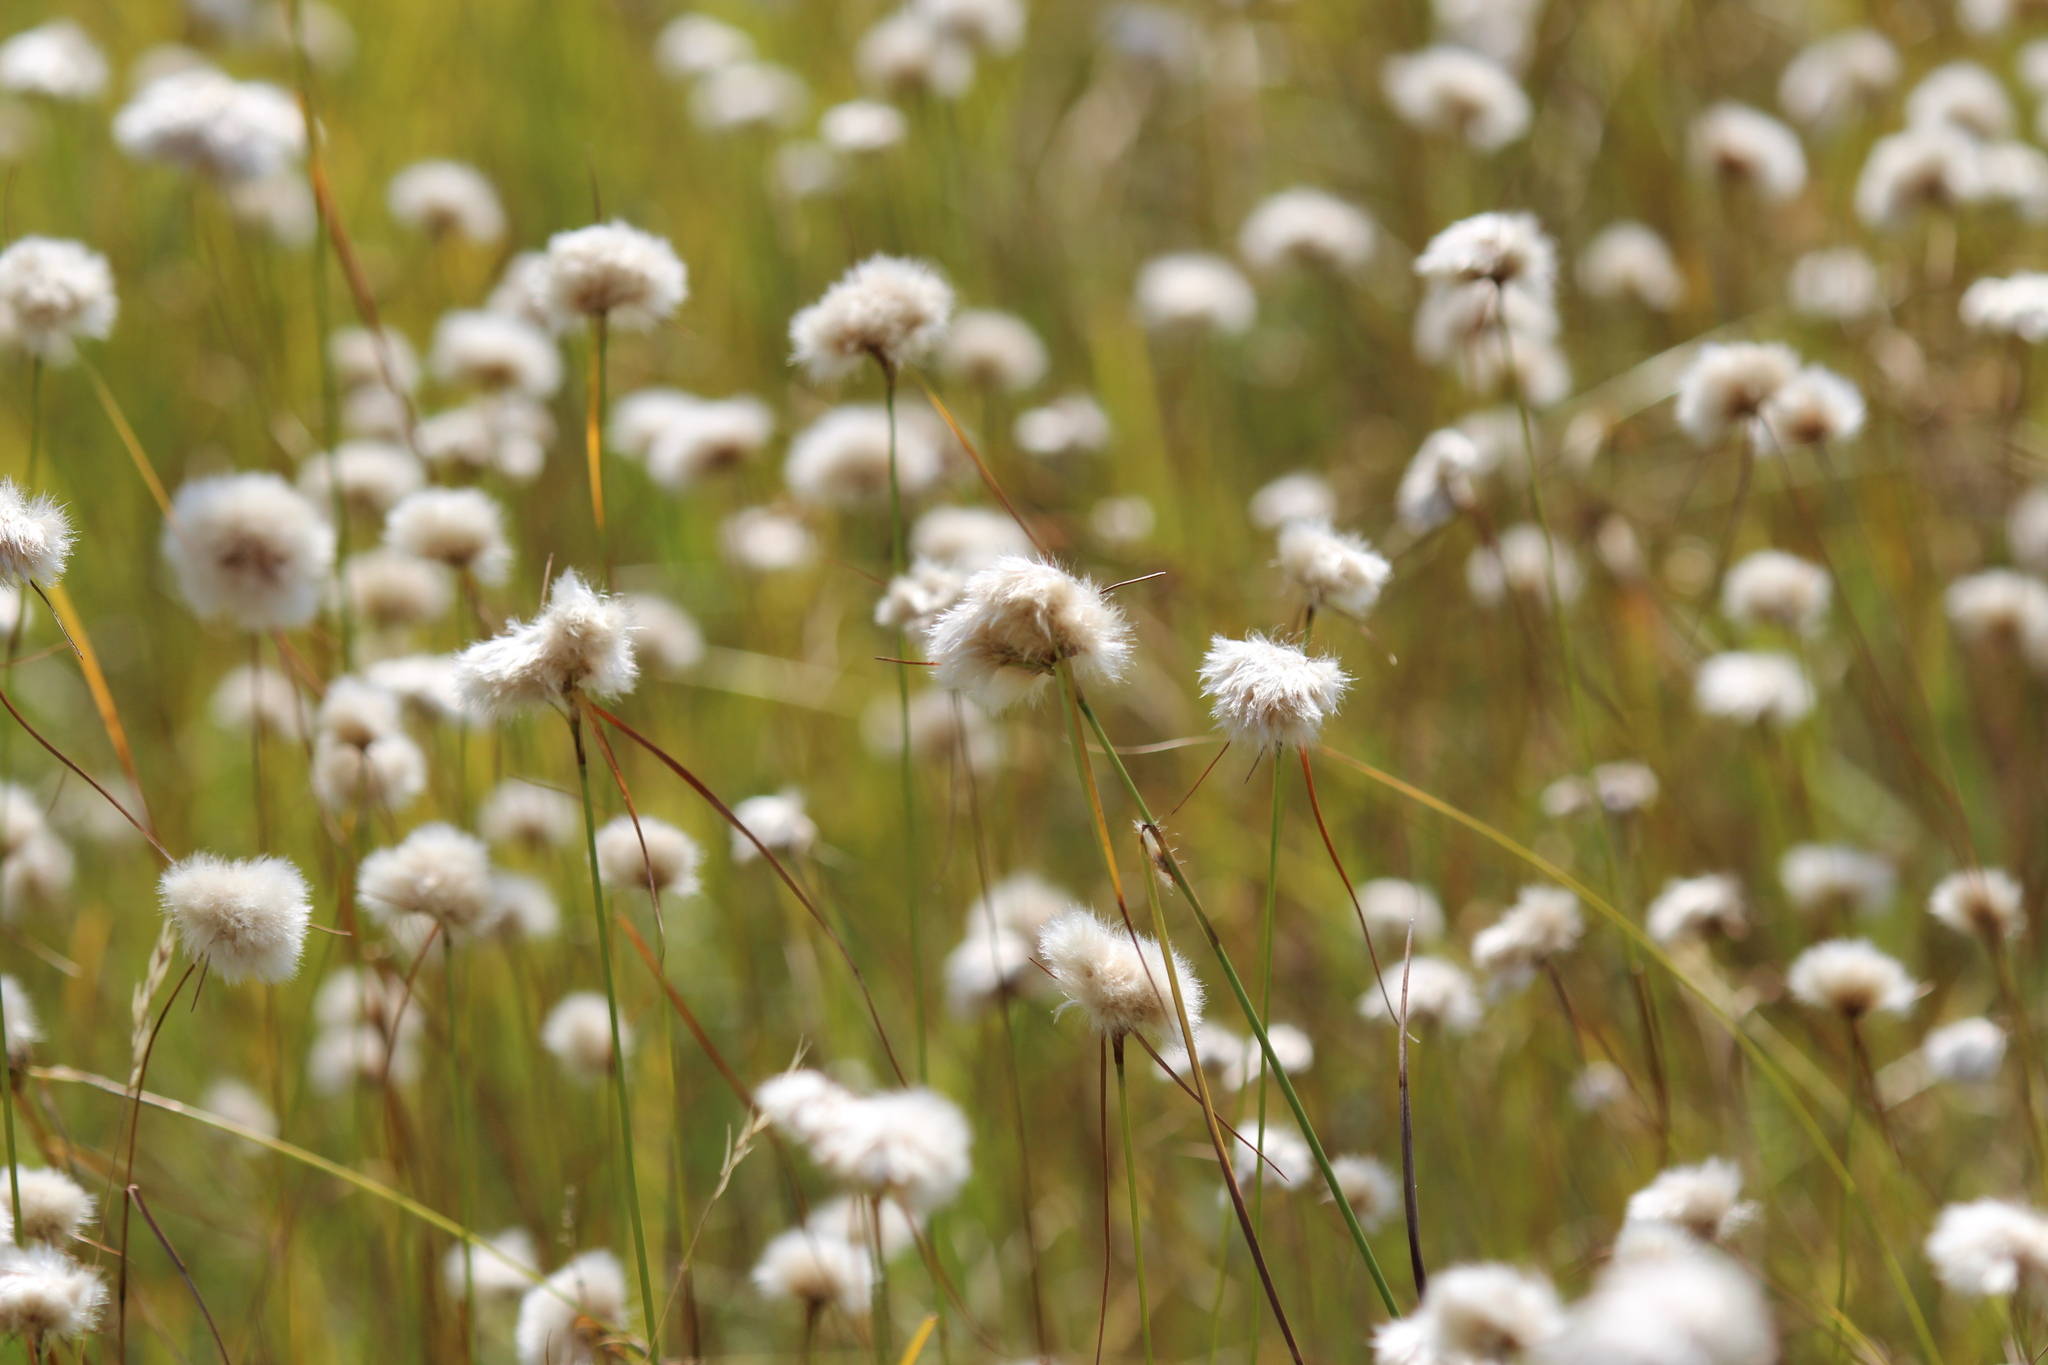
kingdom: Plantae
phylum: Tracheophyta
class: Liliopsida
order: Poales
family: Cyperaceae
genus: Eriophorum
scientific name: Eriophorum virginicum
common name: Tawny cottongrass
